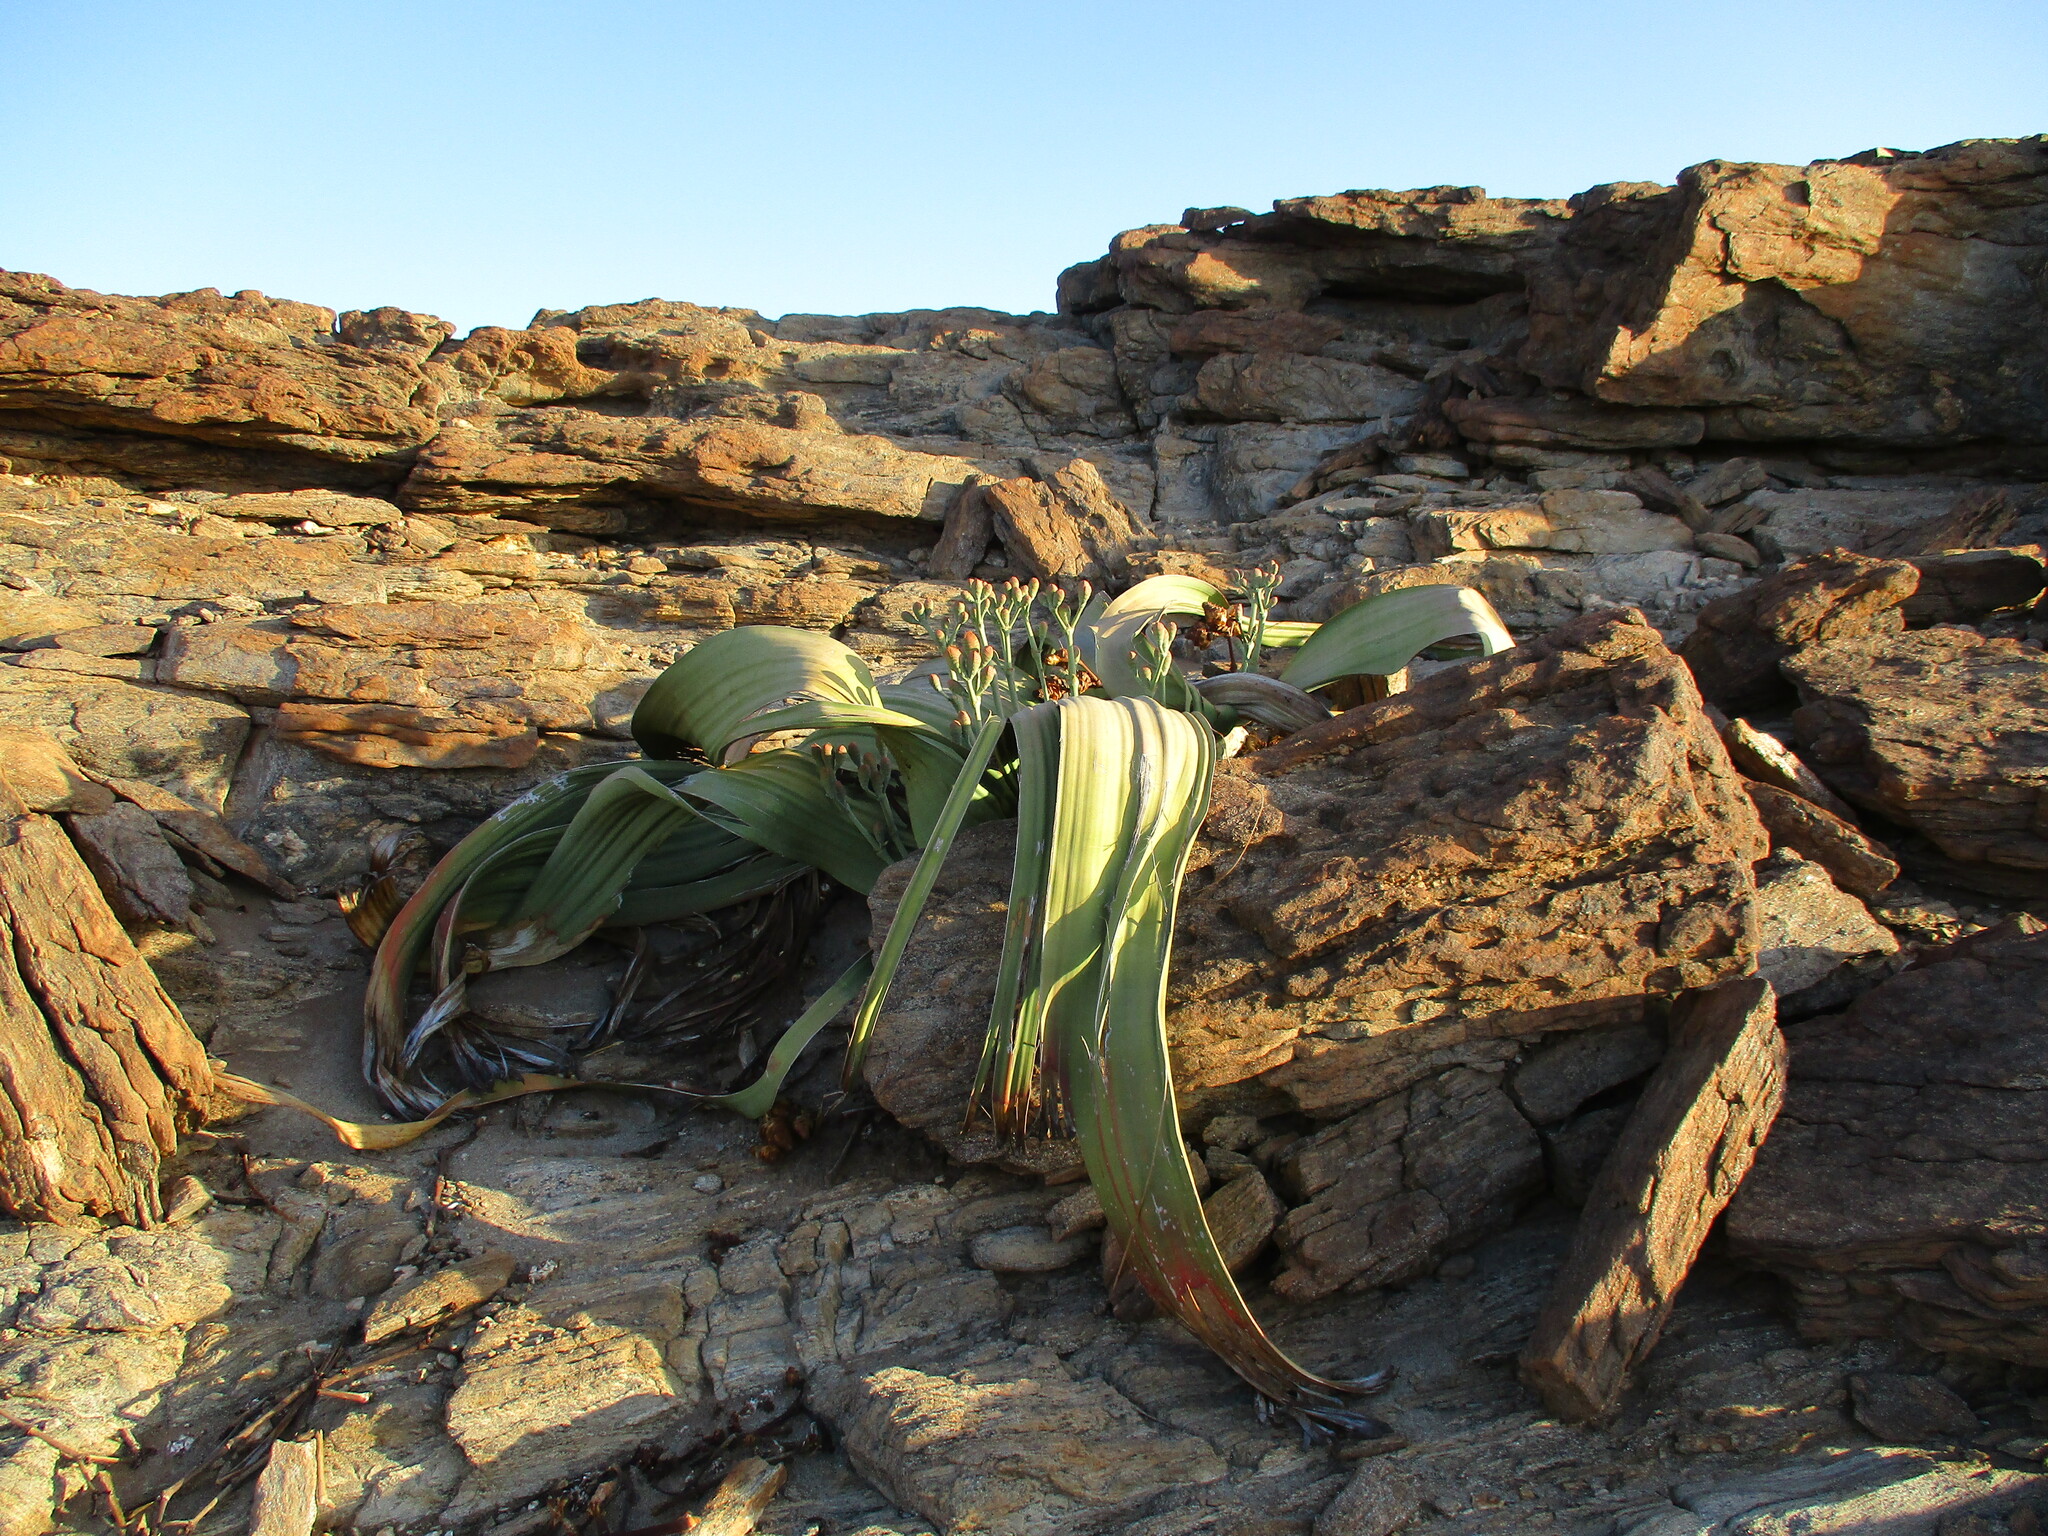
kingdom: Plantae
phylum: Tracheophyta
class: Gnetopsida
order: Welwitschiales
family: Welwitschiaceae
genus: Welwitschia
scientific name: Welwitschia mirabilis
